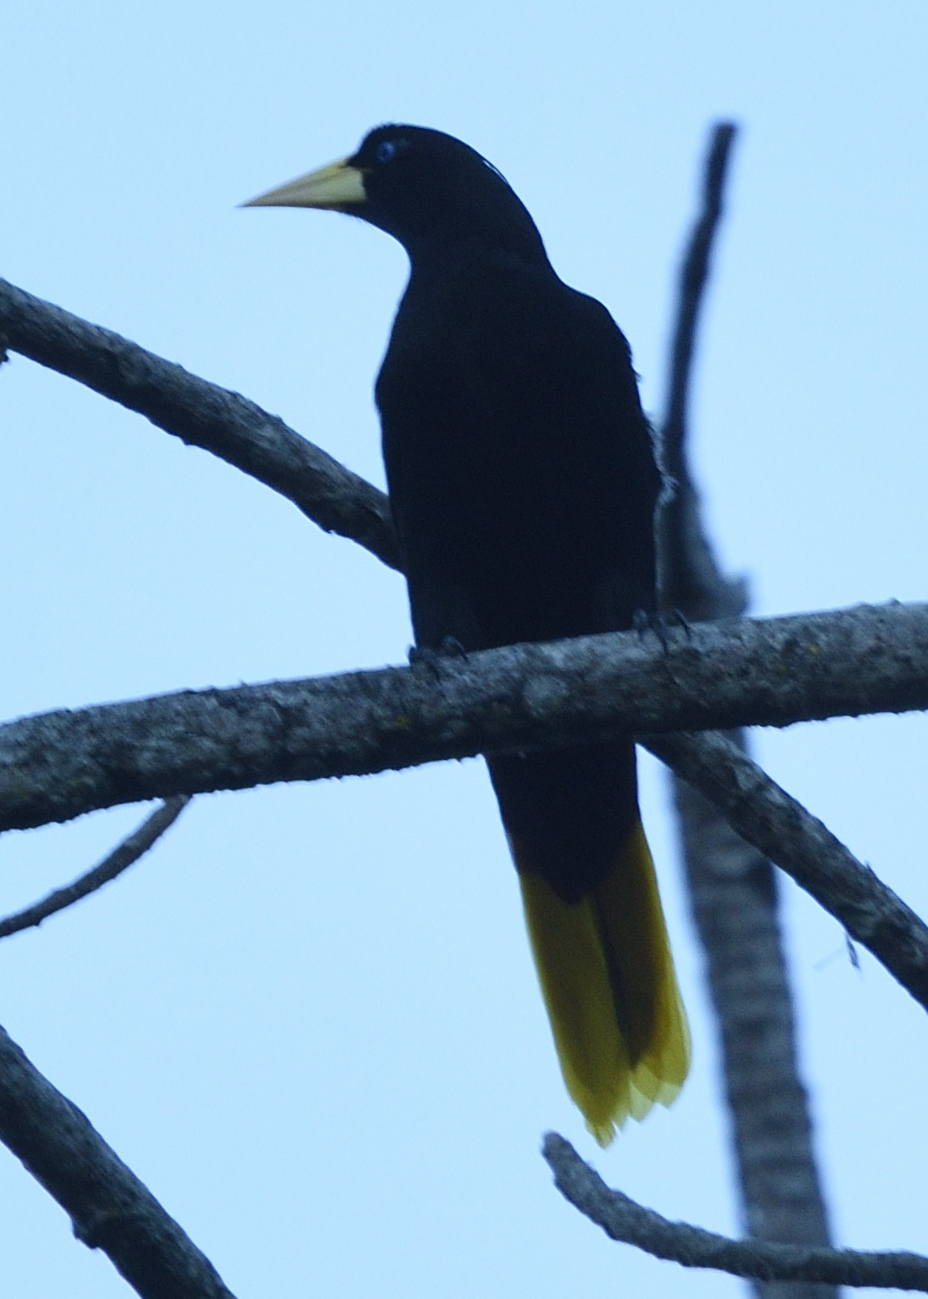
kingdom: Animalia
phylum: Chordata
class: Aves
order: Passeriformes
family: Icteridae
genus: Psarocolius
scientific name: Psarocolius decumanus
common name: Crested oropendola
